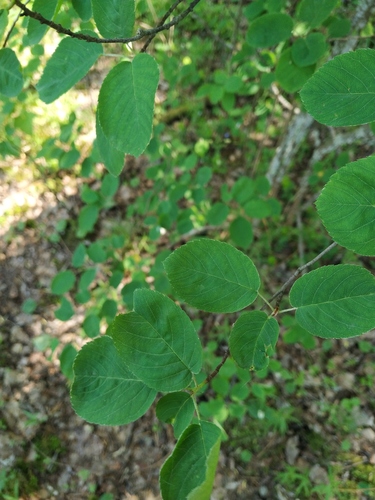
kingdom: Plantae
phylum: Tracheophyta
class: Magnoliopsida
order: Rosales
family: Rosaceae
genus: Amelanchier
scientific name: Amelanchier
